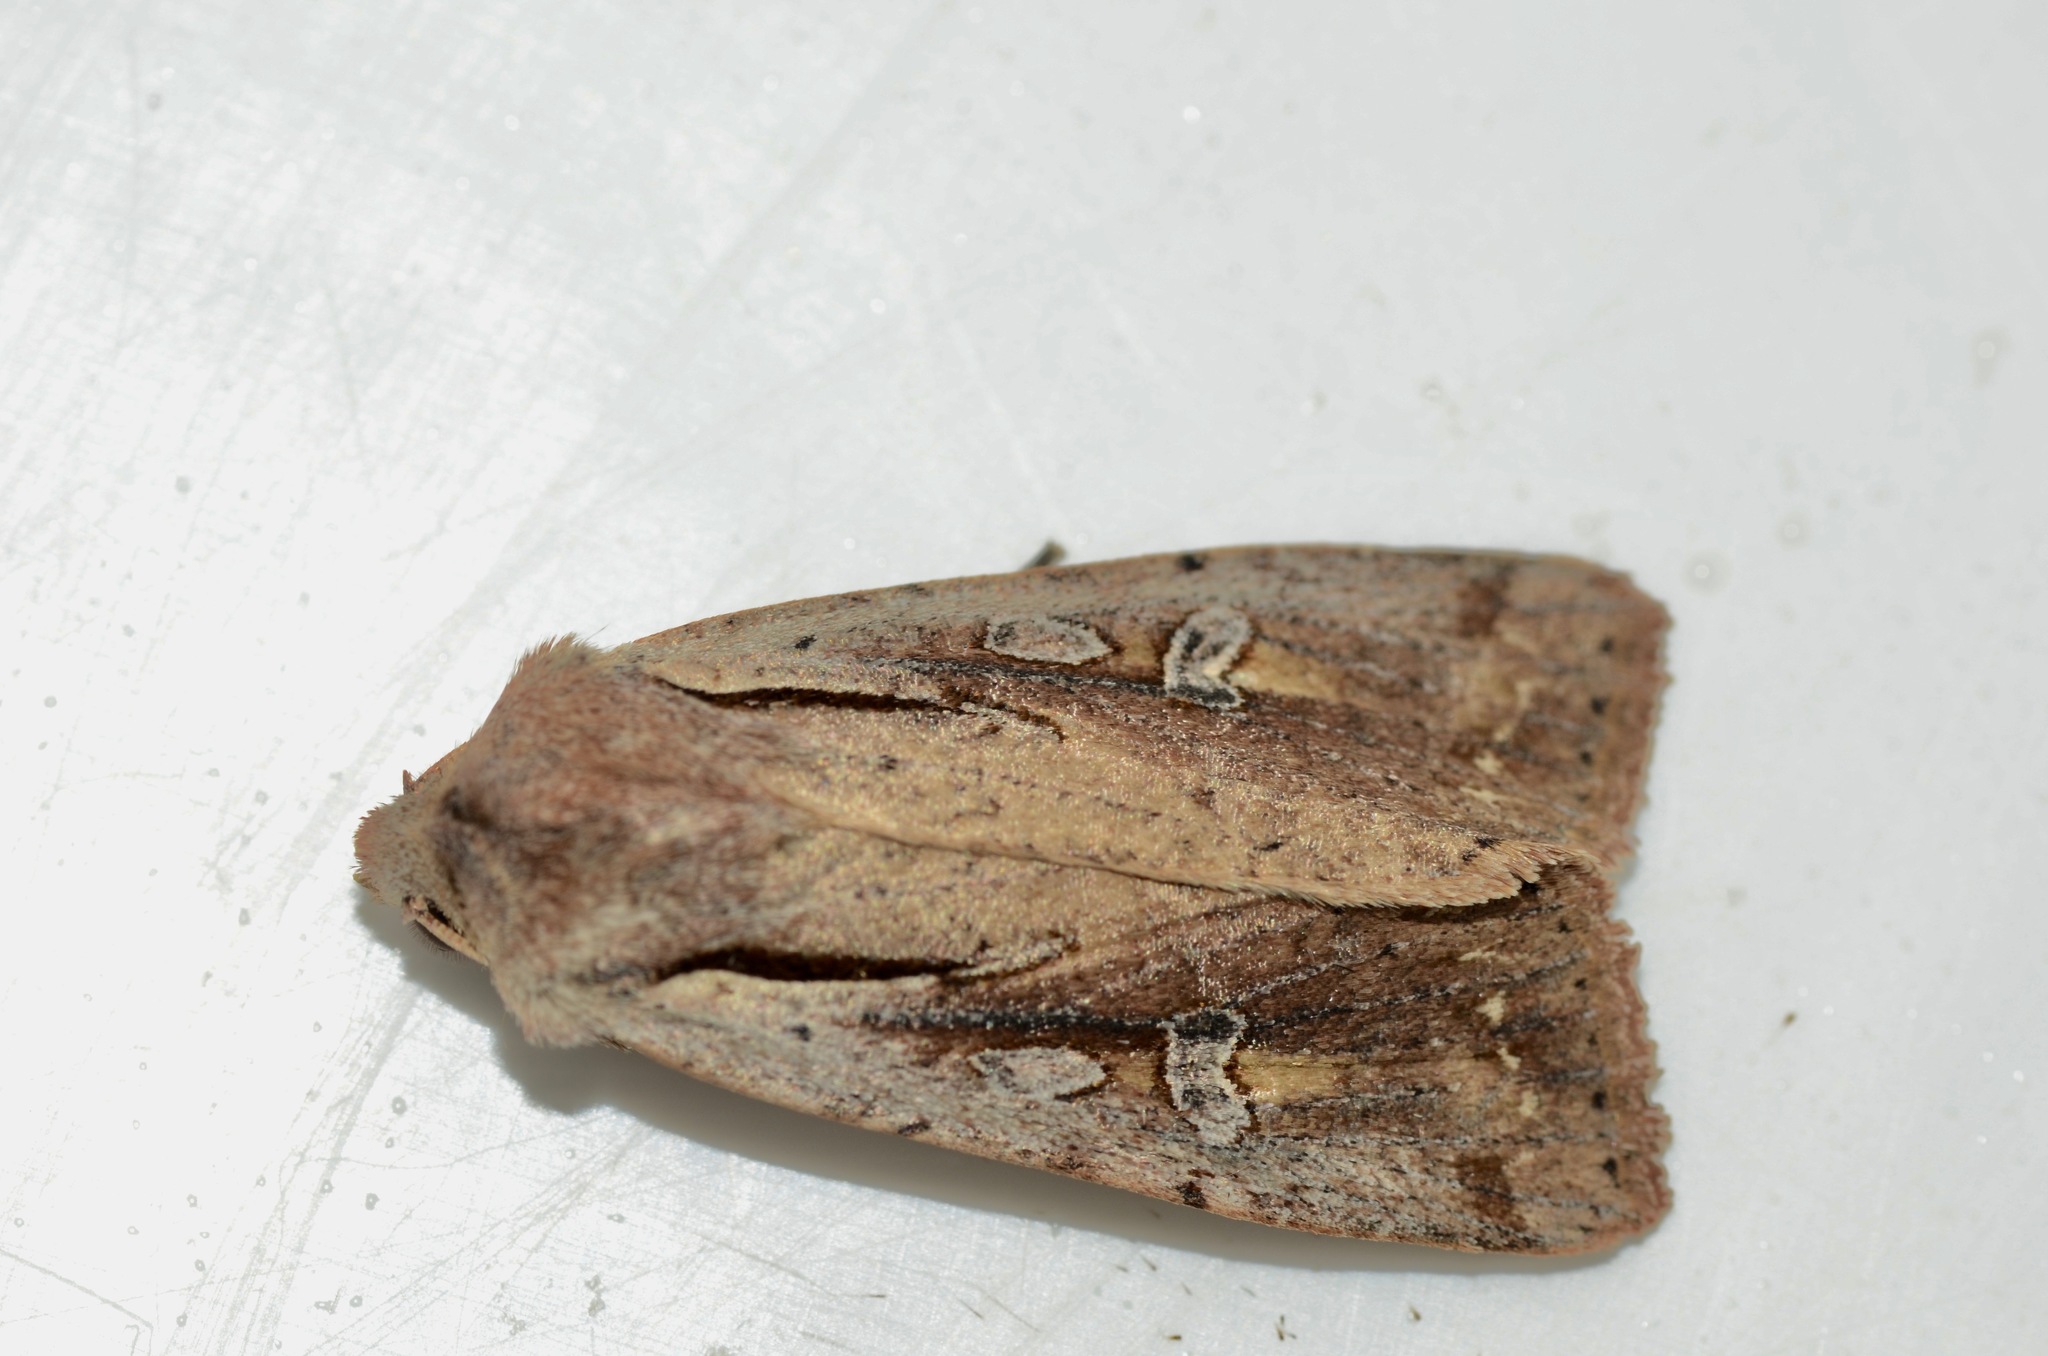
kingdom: Animalia
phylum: Arthropoda
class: Insecta
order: Lepidoptera
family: Noctuidae
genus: Ichneutica
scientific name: Ichneutica atristriga
